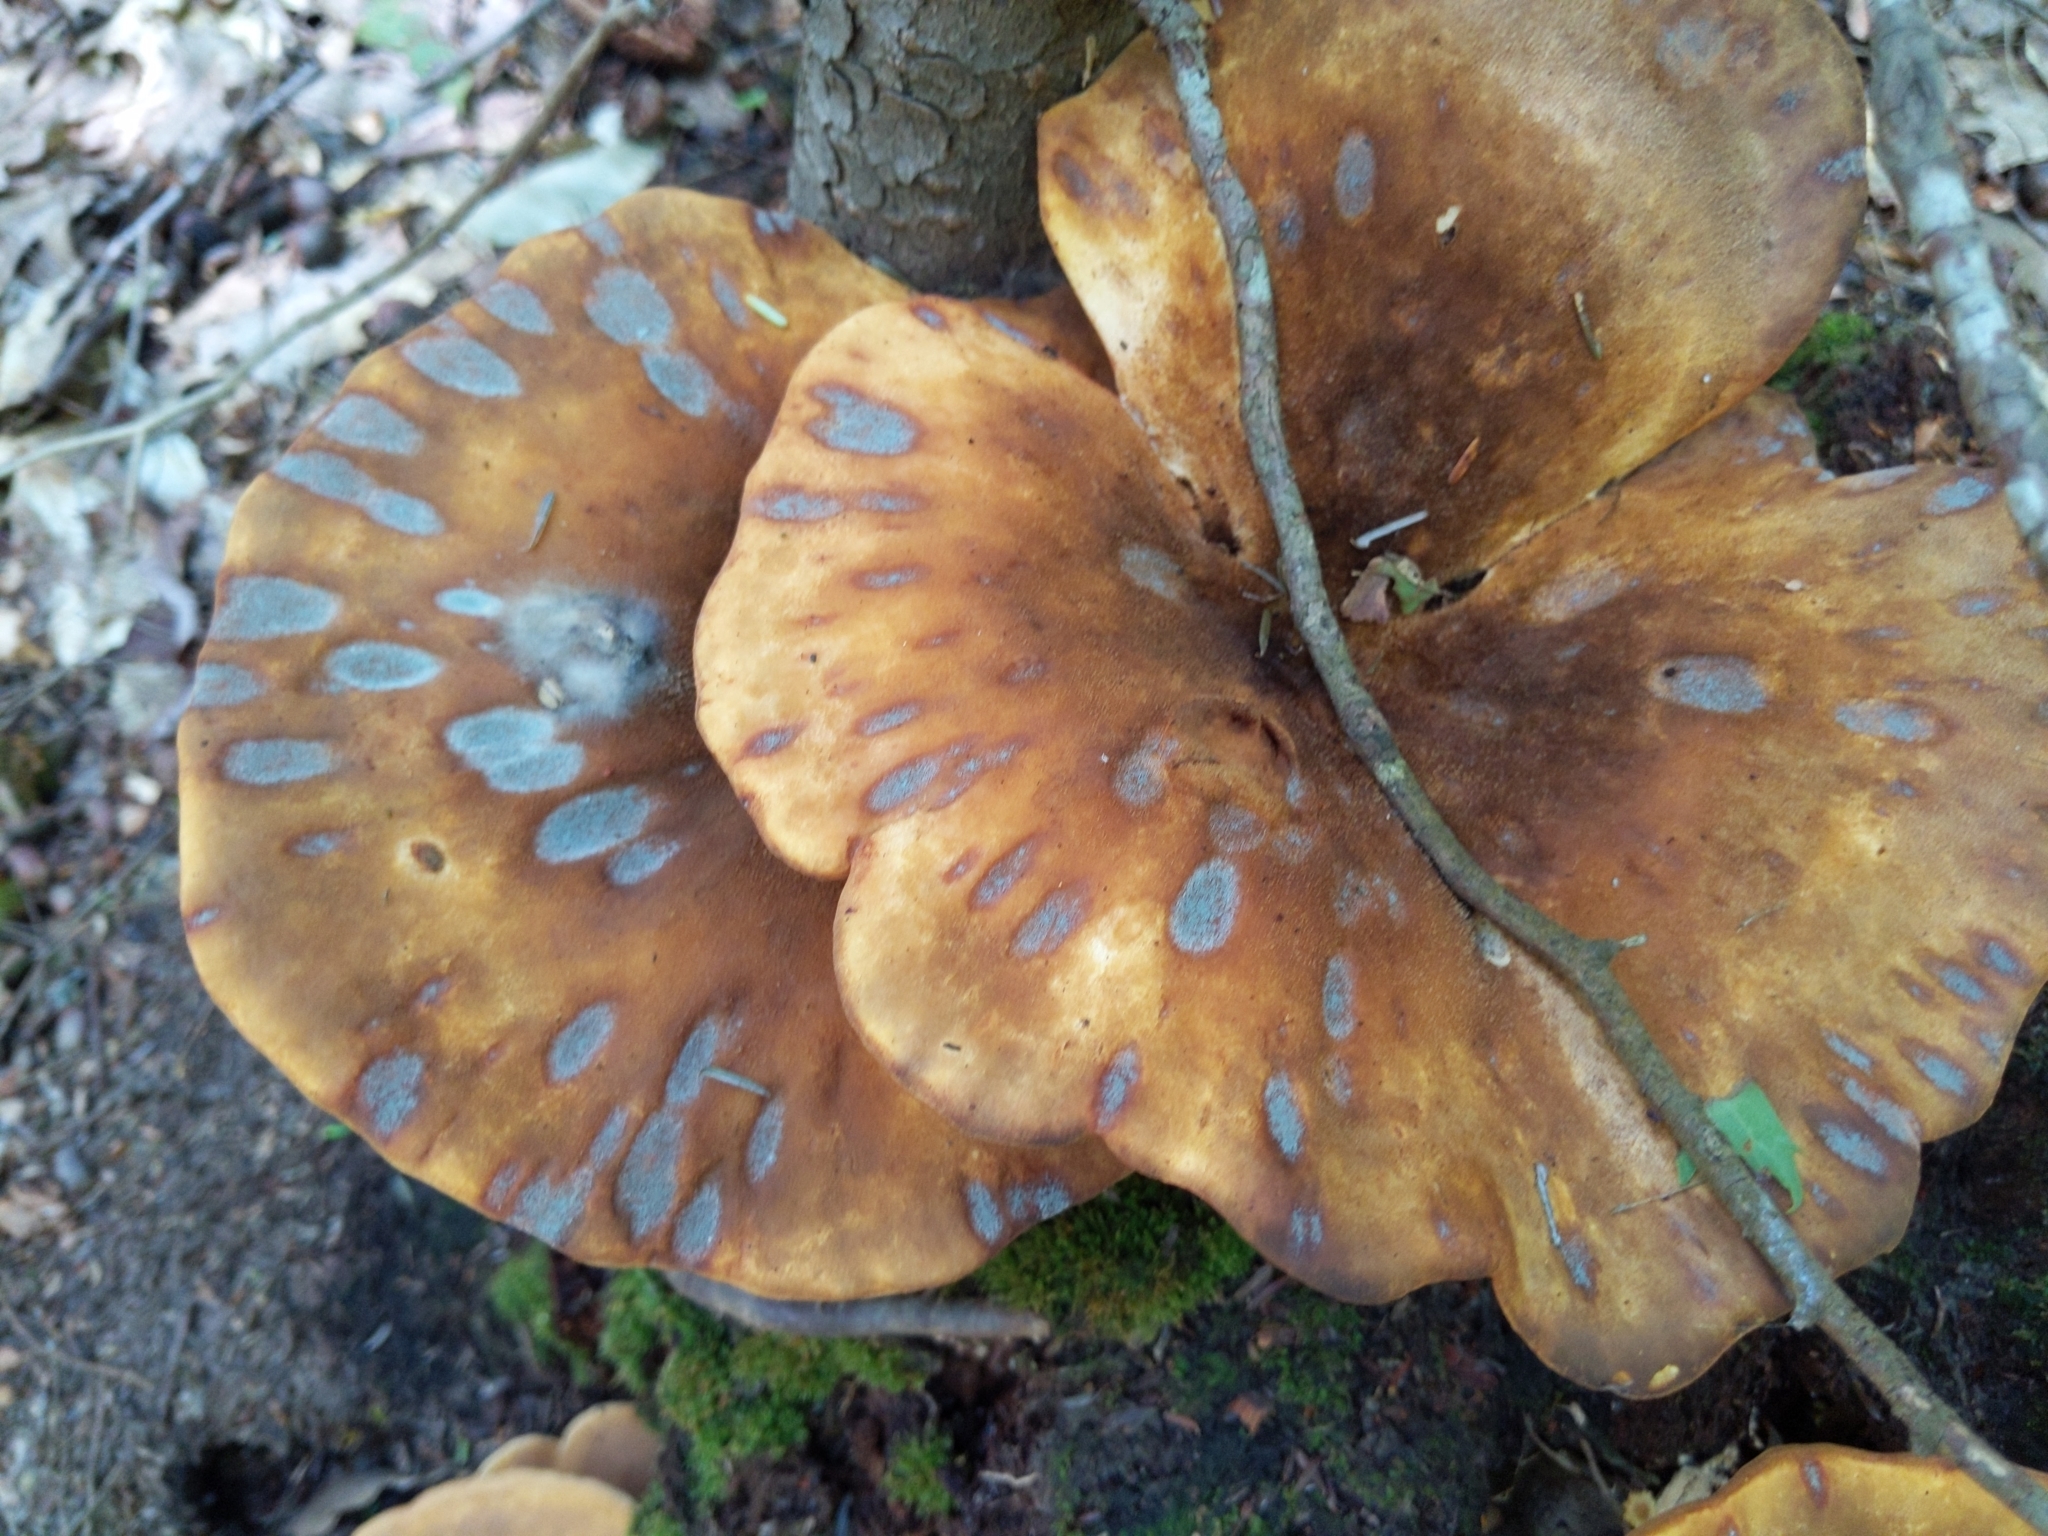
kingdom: Fungi
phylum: Basidiomycota
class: Agaricomycetes
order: Boletales
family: Tapinellaceae
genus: Tapinella
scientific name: Tapinella atrotomentosa
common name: Velvet rollrim
